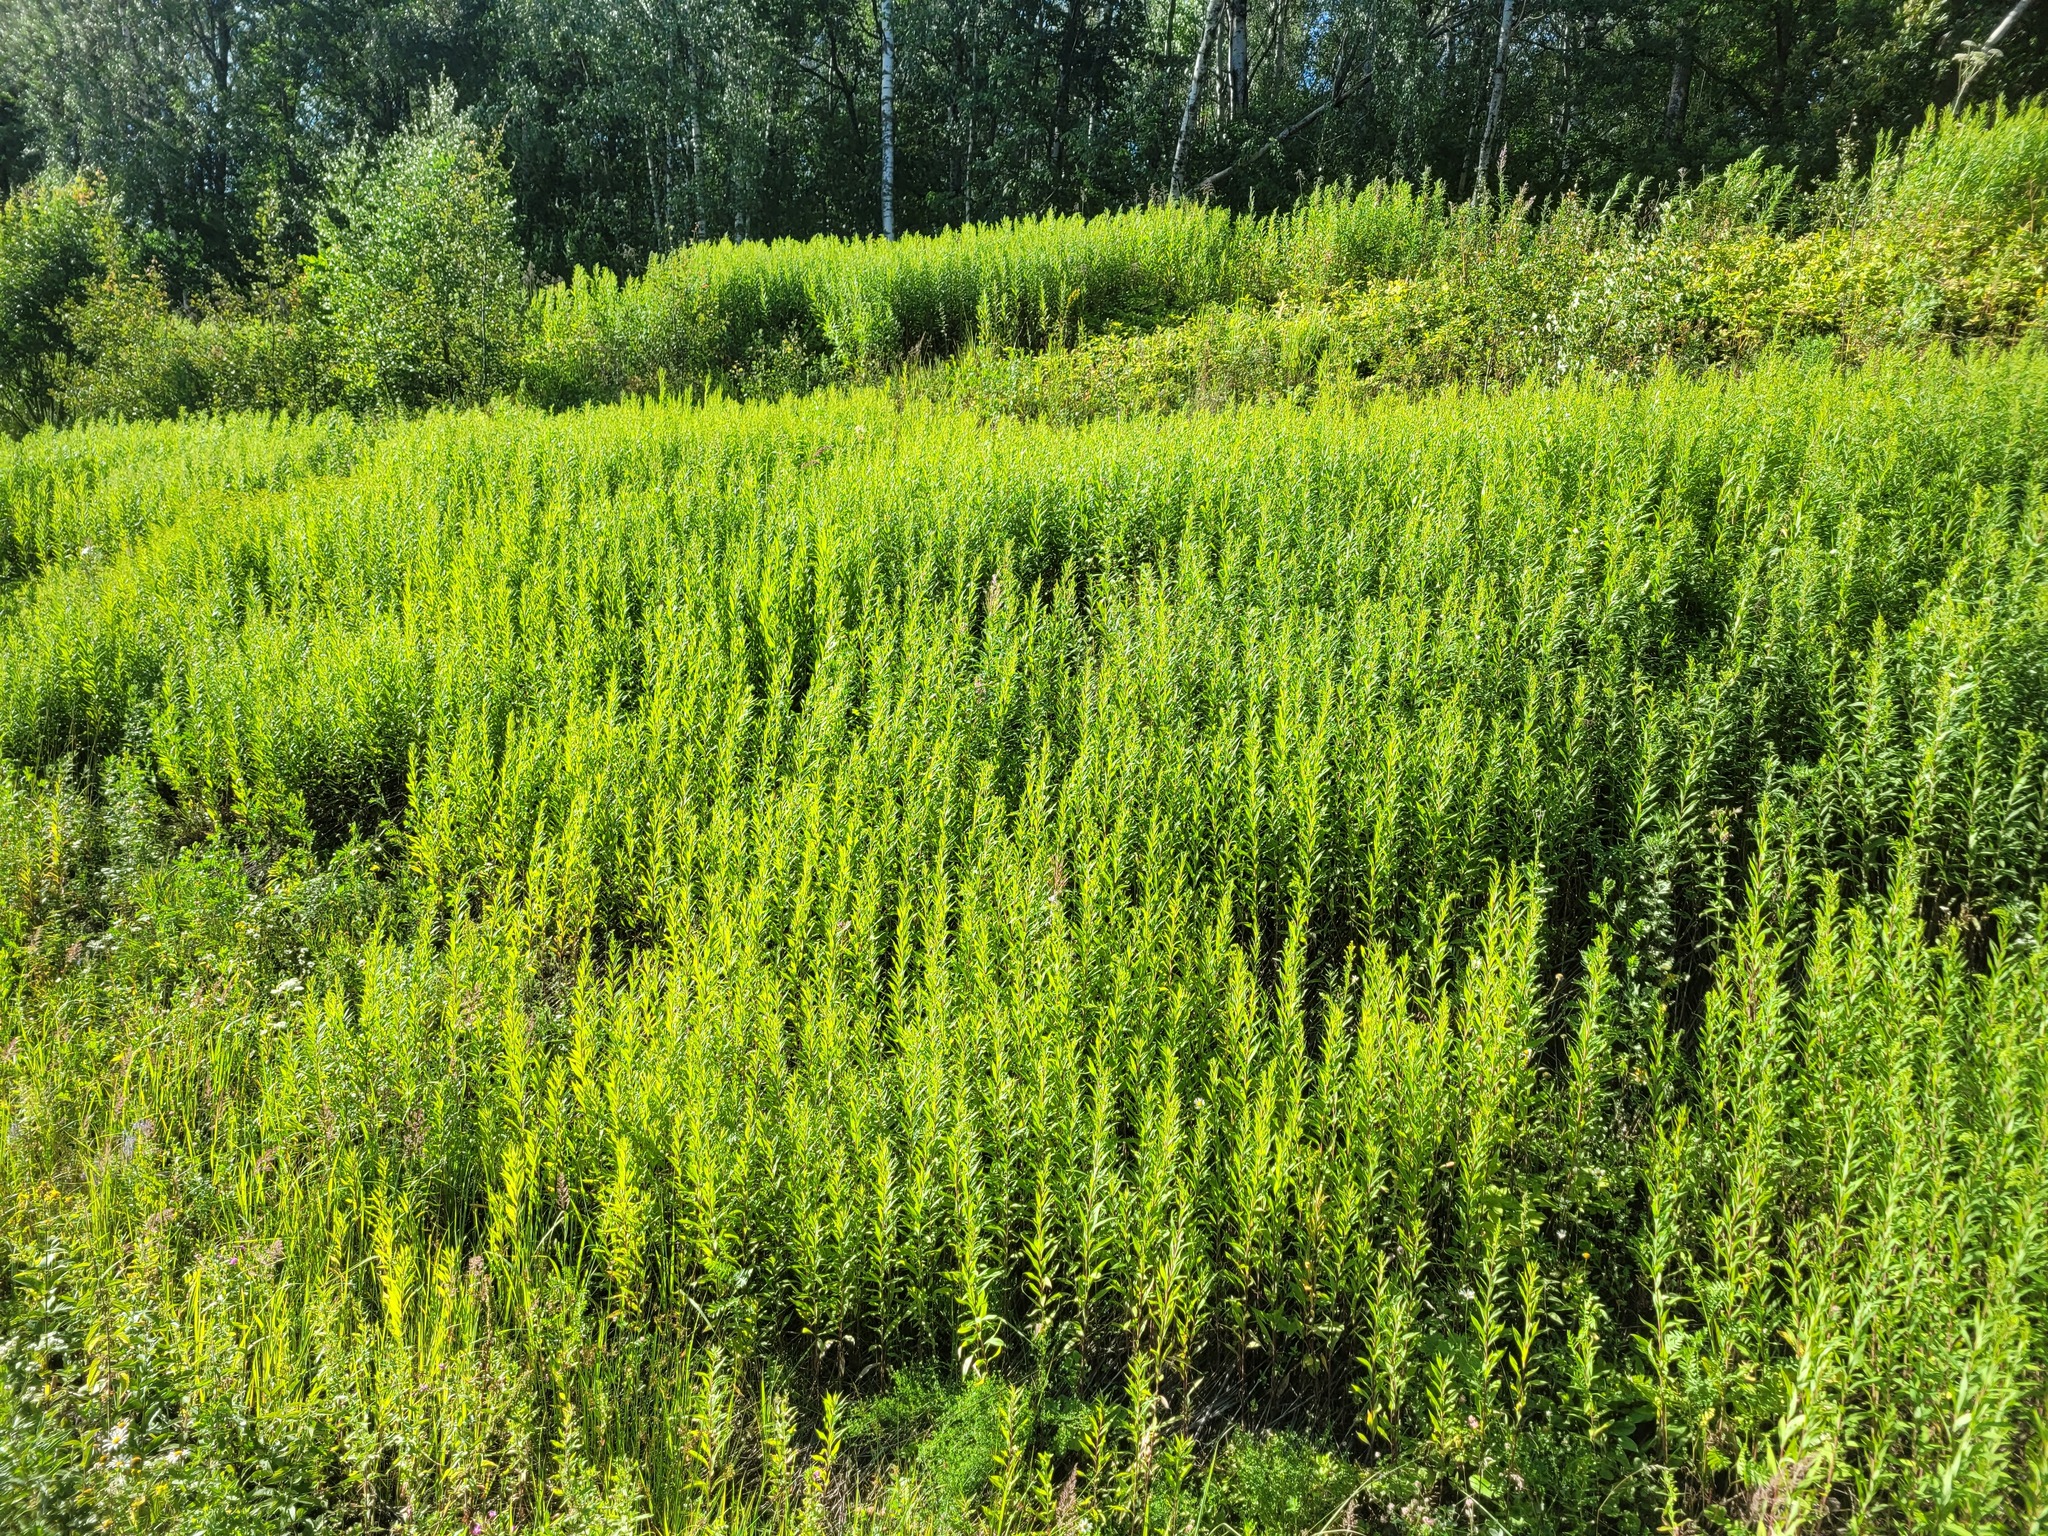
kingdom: Plantae
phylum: Tracheophyta
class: Magnoliopsida
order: Asterales
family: Asteraceae
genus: Solidago
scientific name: Solidago gigantea
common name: Giant goldenrod
